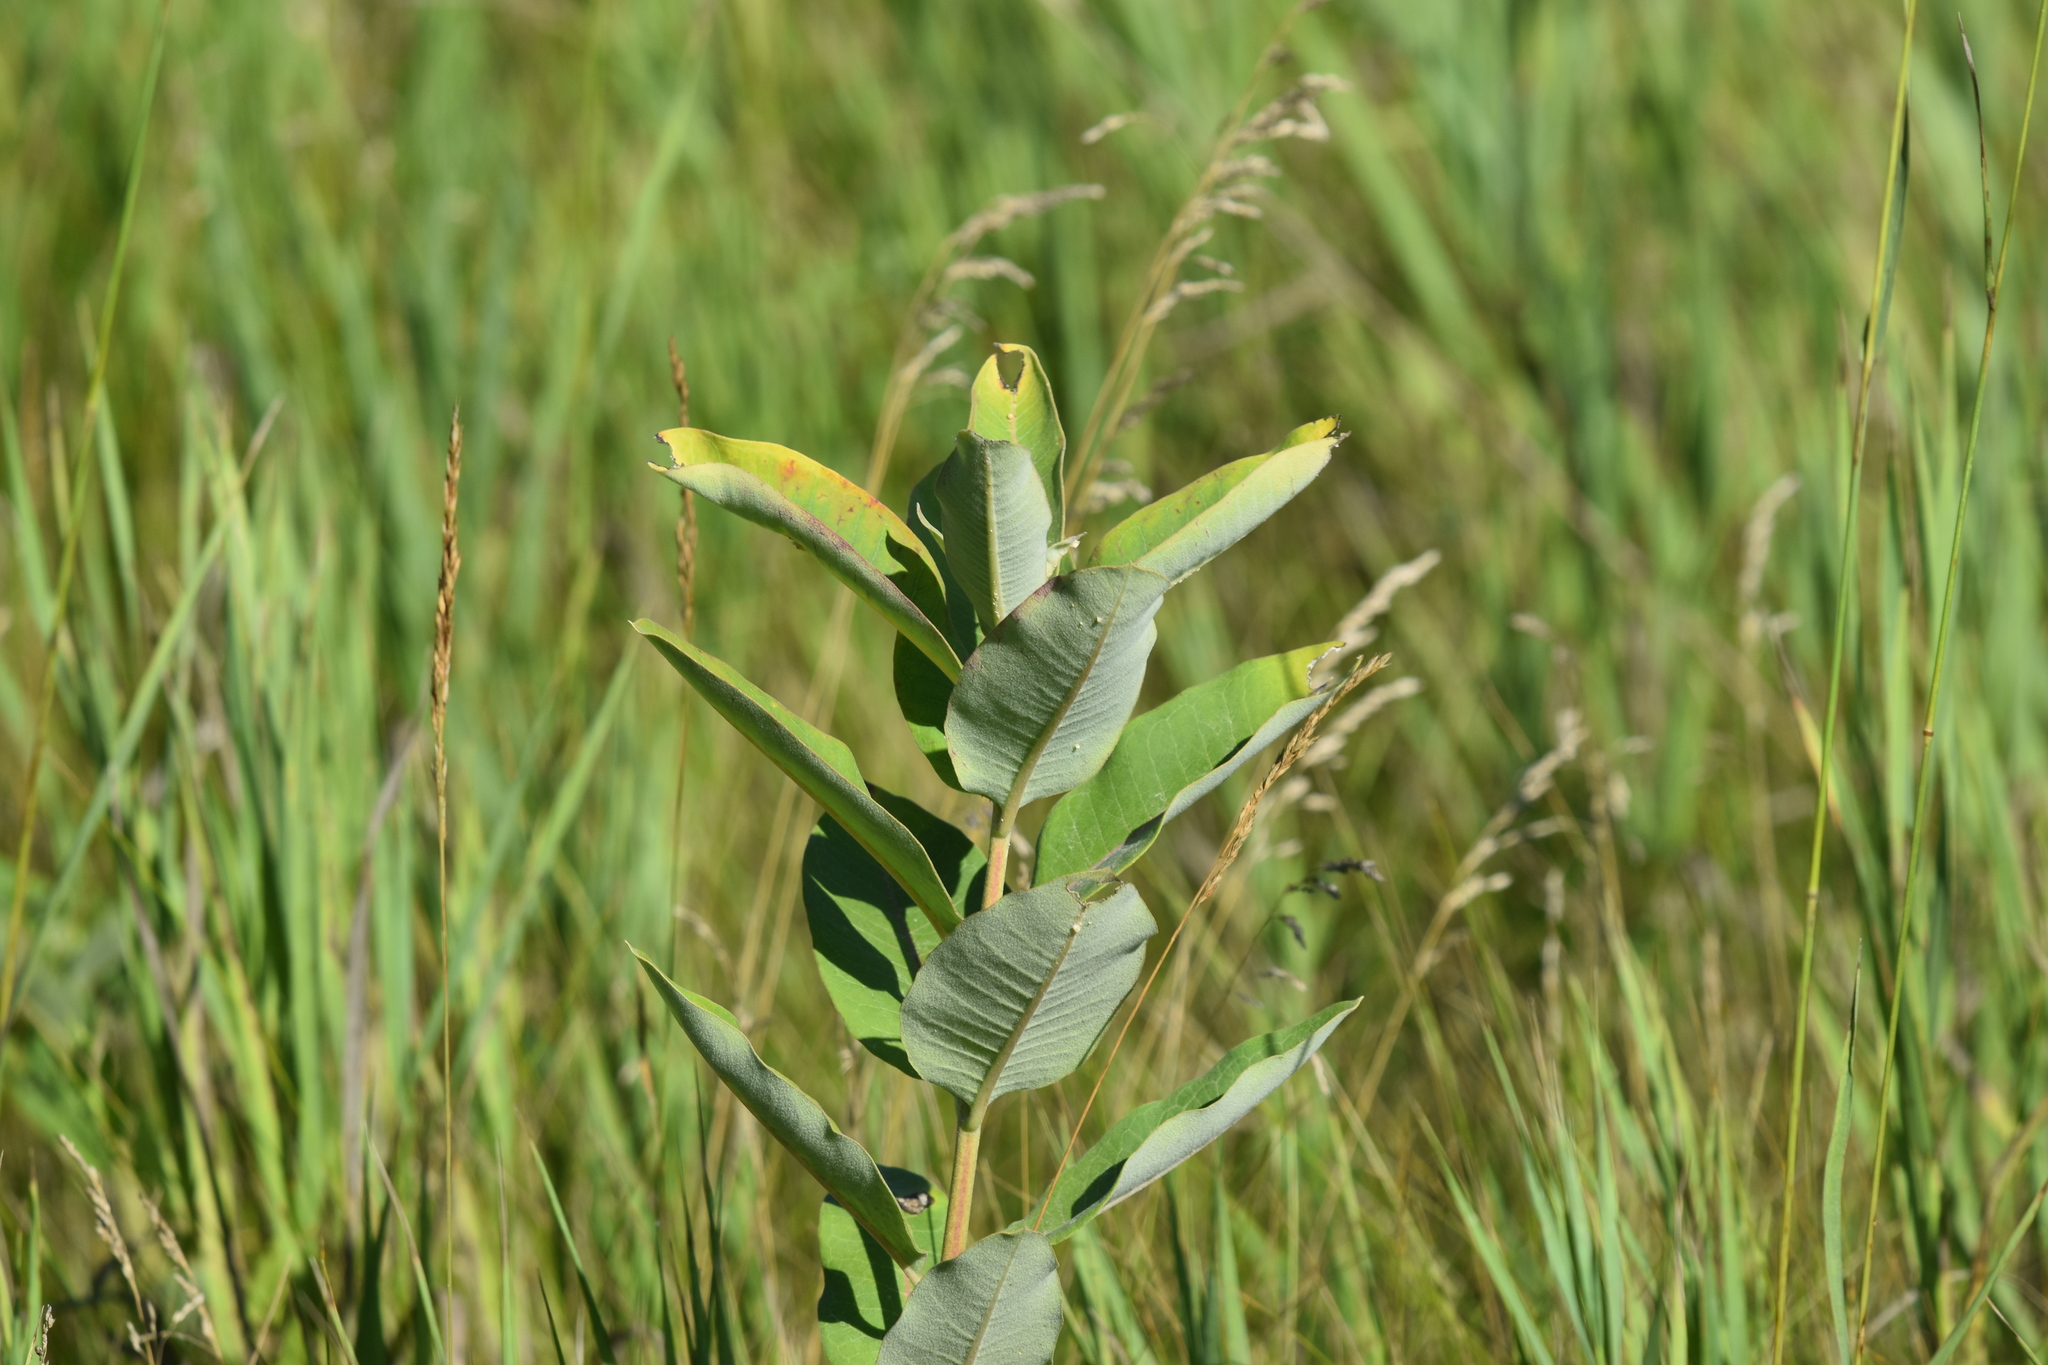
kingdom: Plantae
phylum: Tracheophyta
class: Magnoliopsida
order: Gentianales
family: Apocynaceae
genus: Asclepias
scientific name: Asclepias syriaca
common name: Common milkweed
